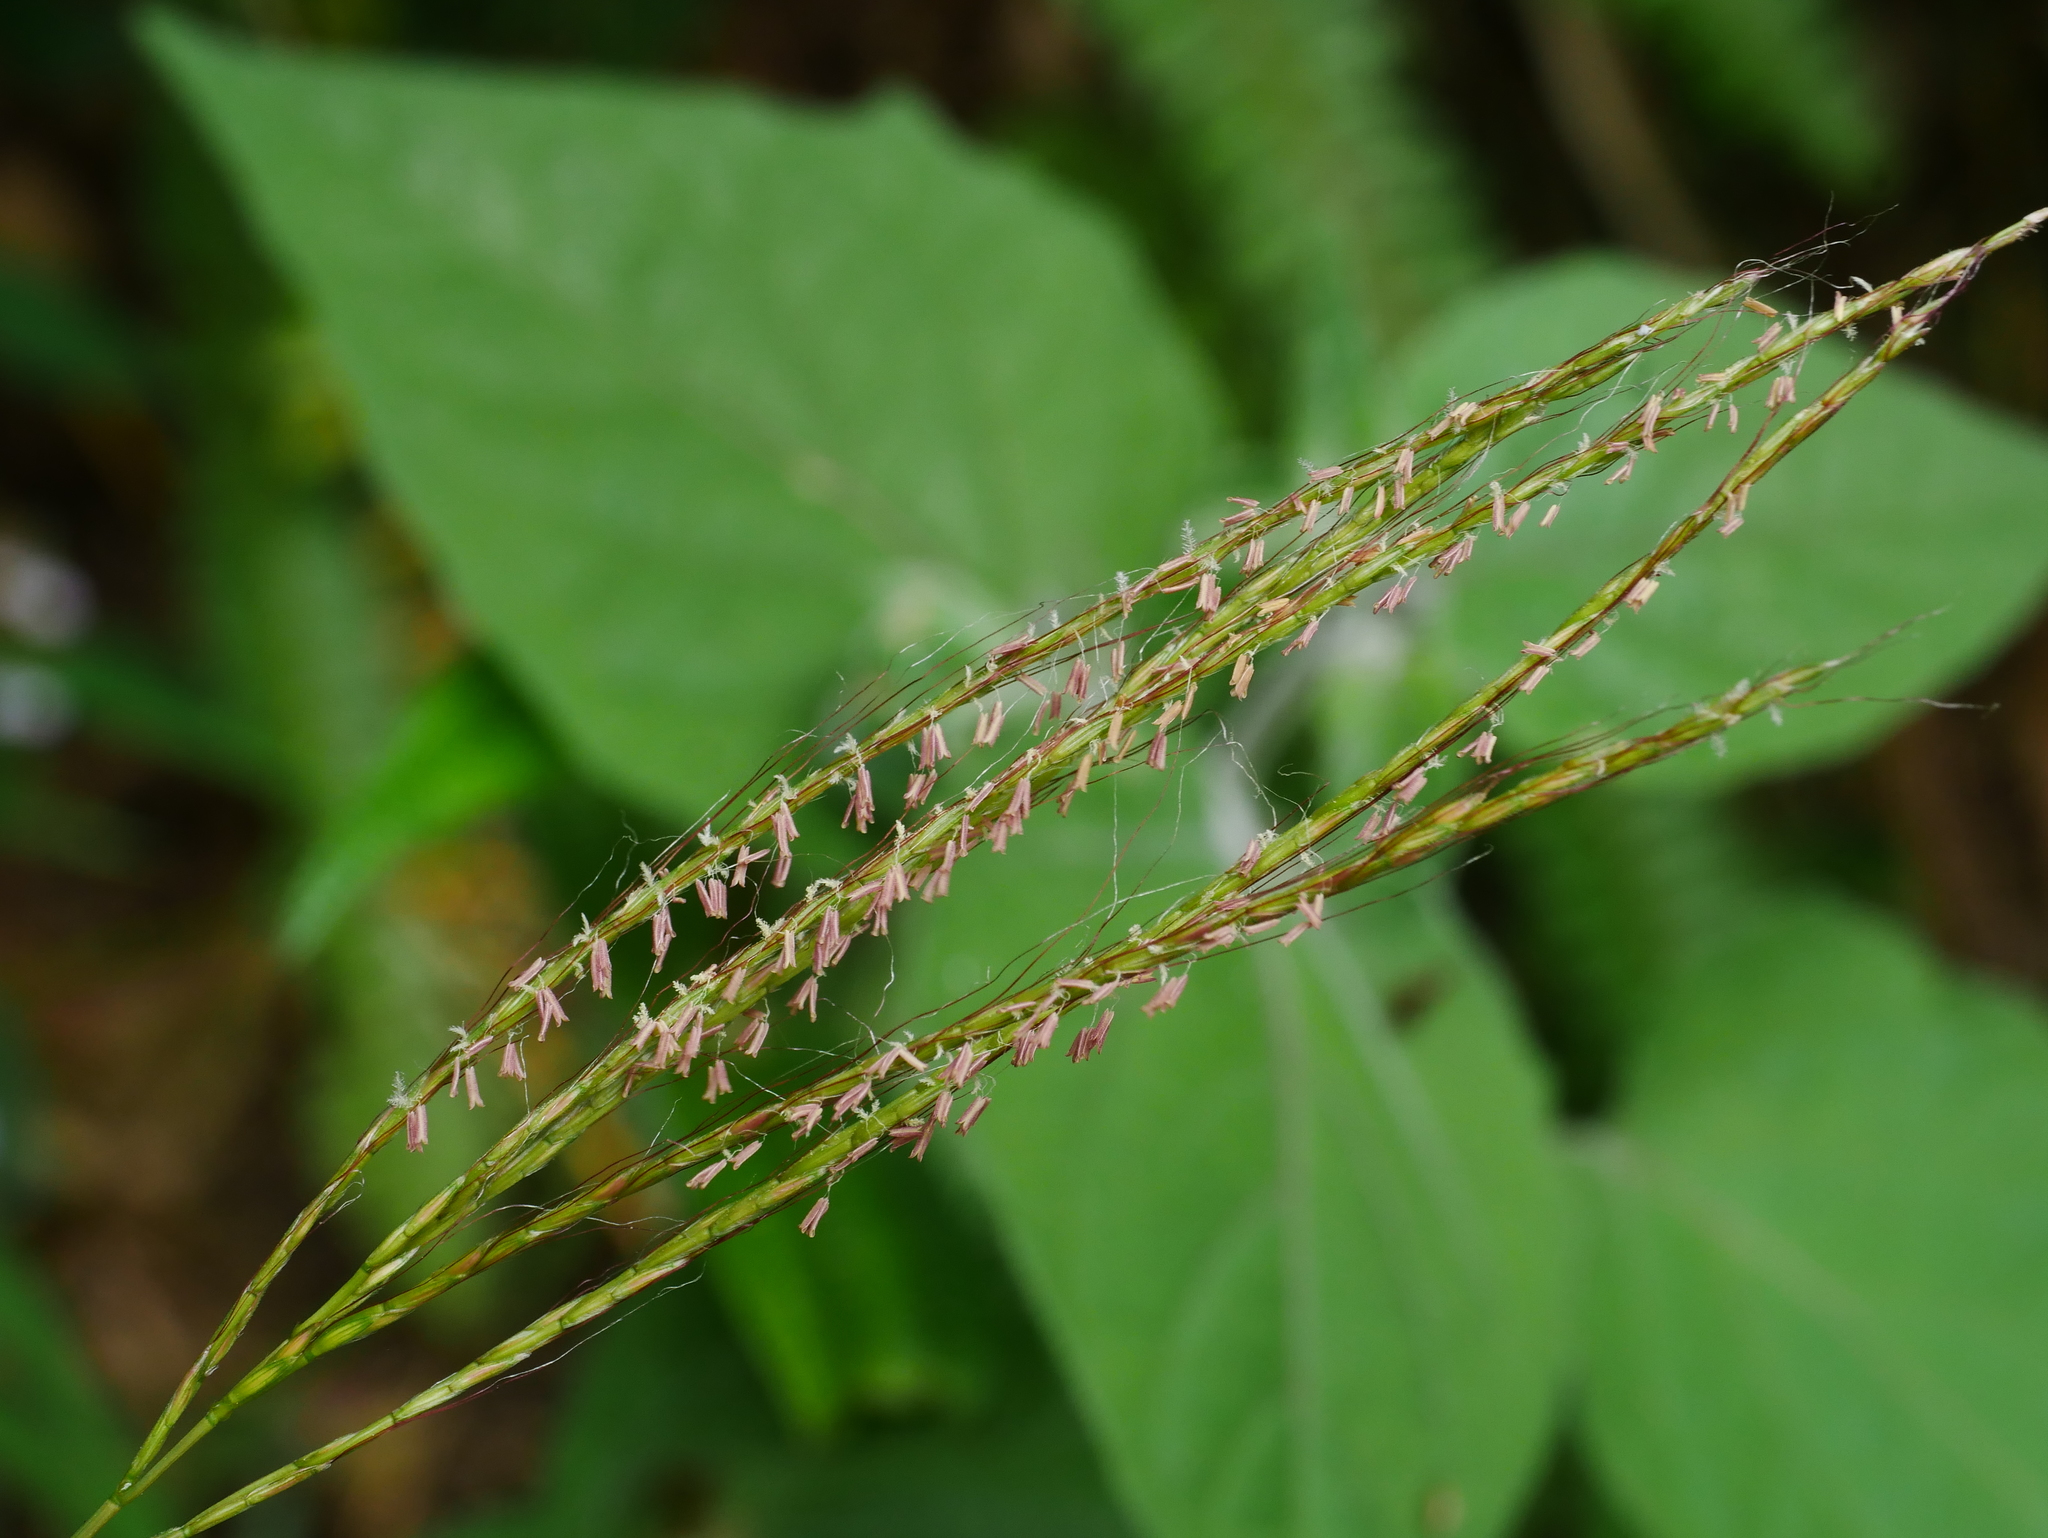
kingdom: Plantae
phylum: Tracheophyta
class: Liliopsida
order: Poales
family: Poaceae
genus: Microstegium
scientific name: Microstegium fasciculatum
